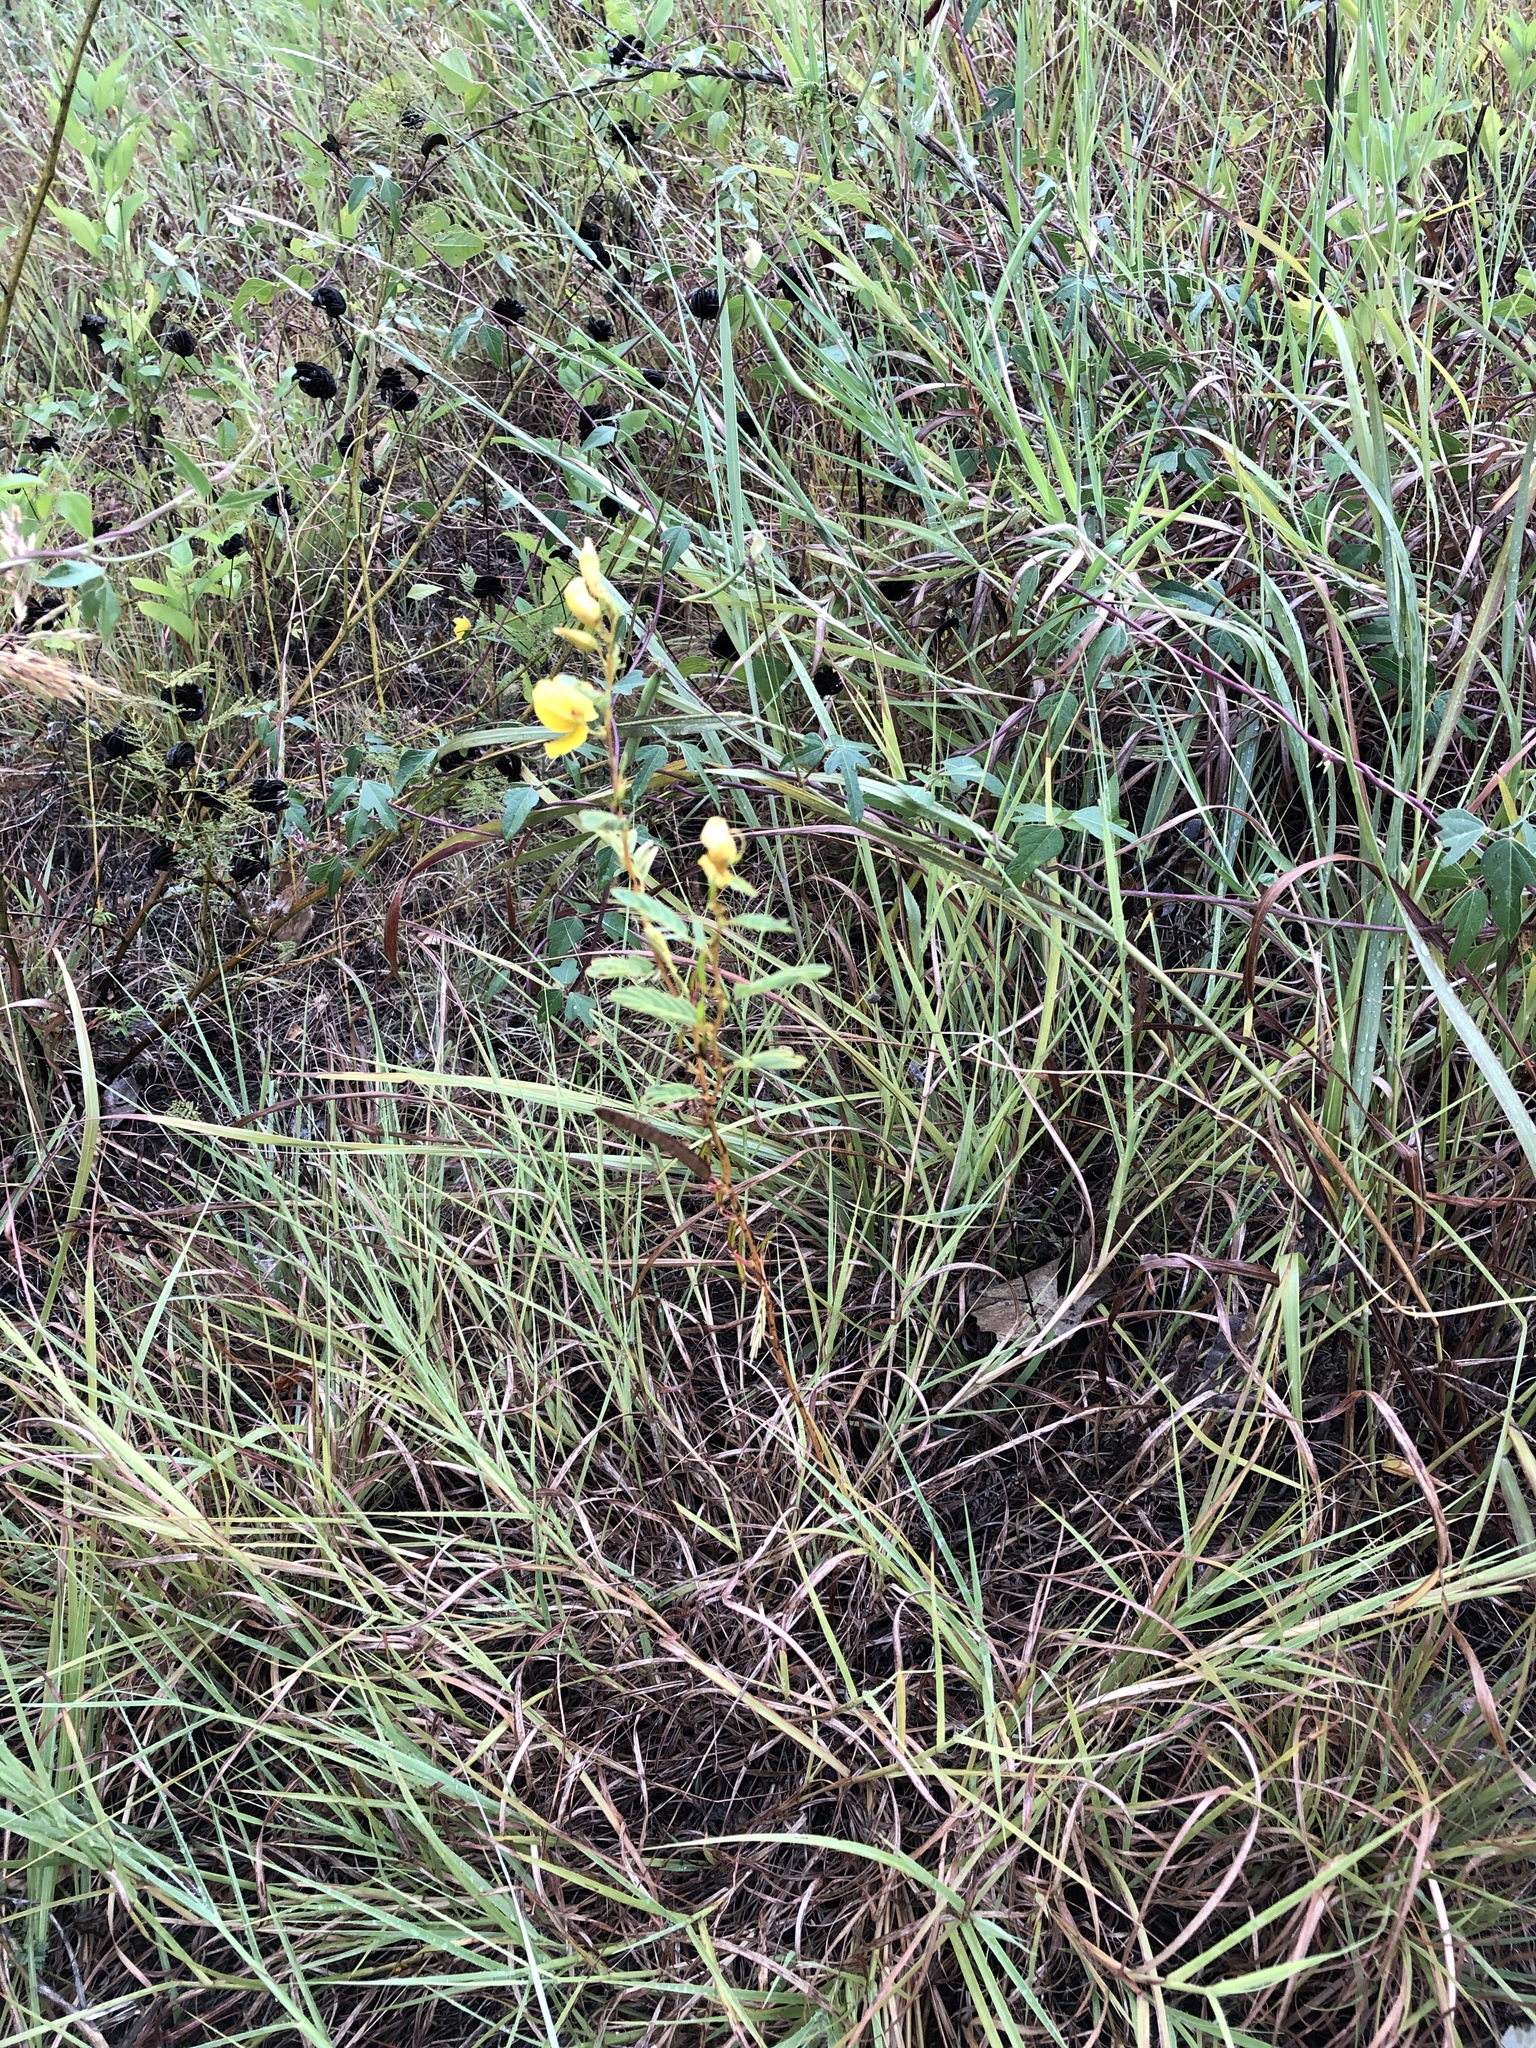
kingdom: Plantae
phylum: Tracheophyta
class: Magnoliopsida
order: Fabales
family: Fabaceae
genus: Chamaecrista
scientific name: Chamaecrista fasciculata
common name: Golden cassia
